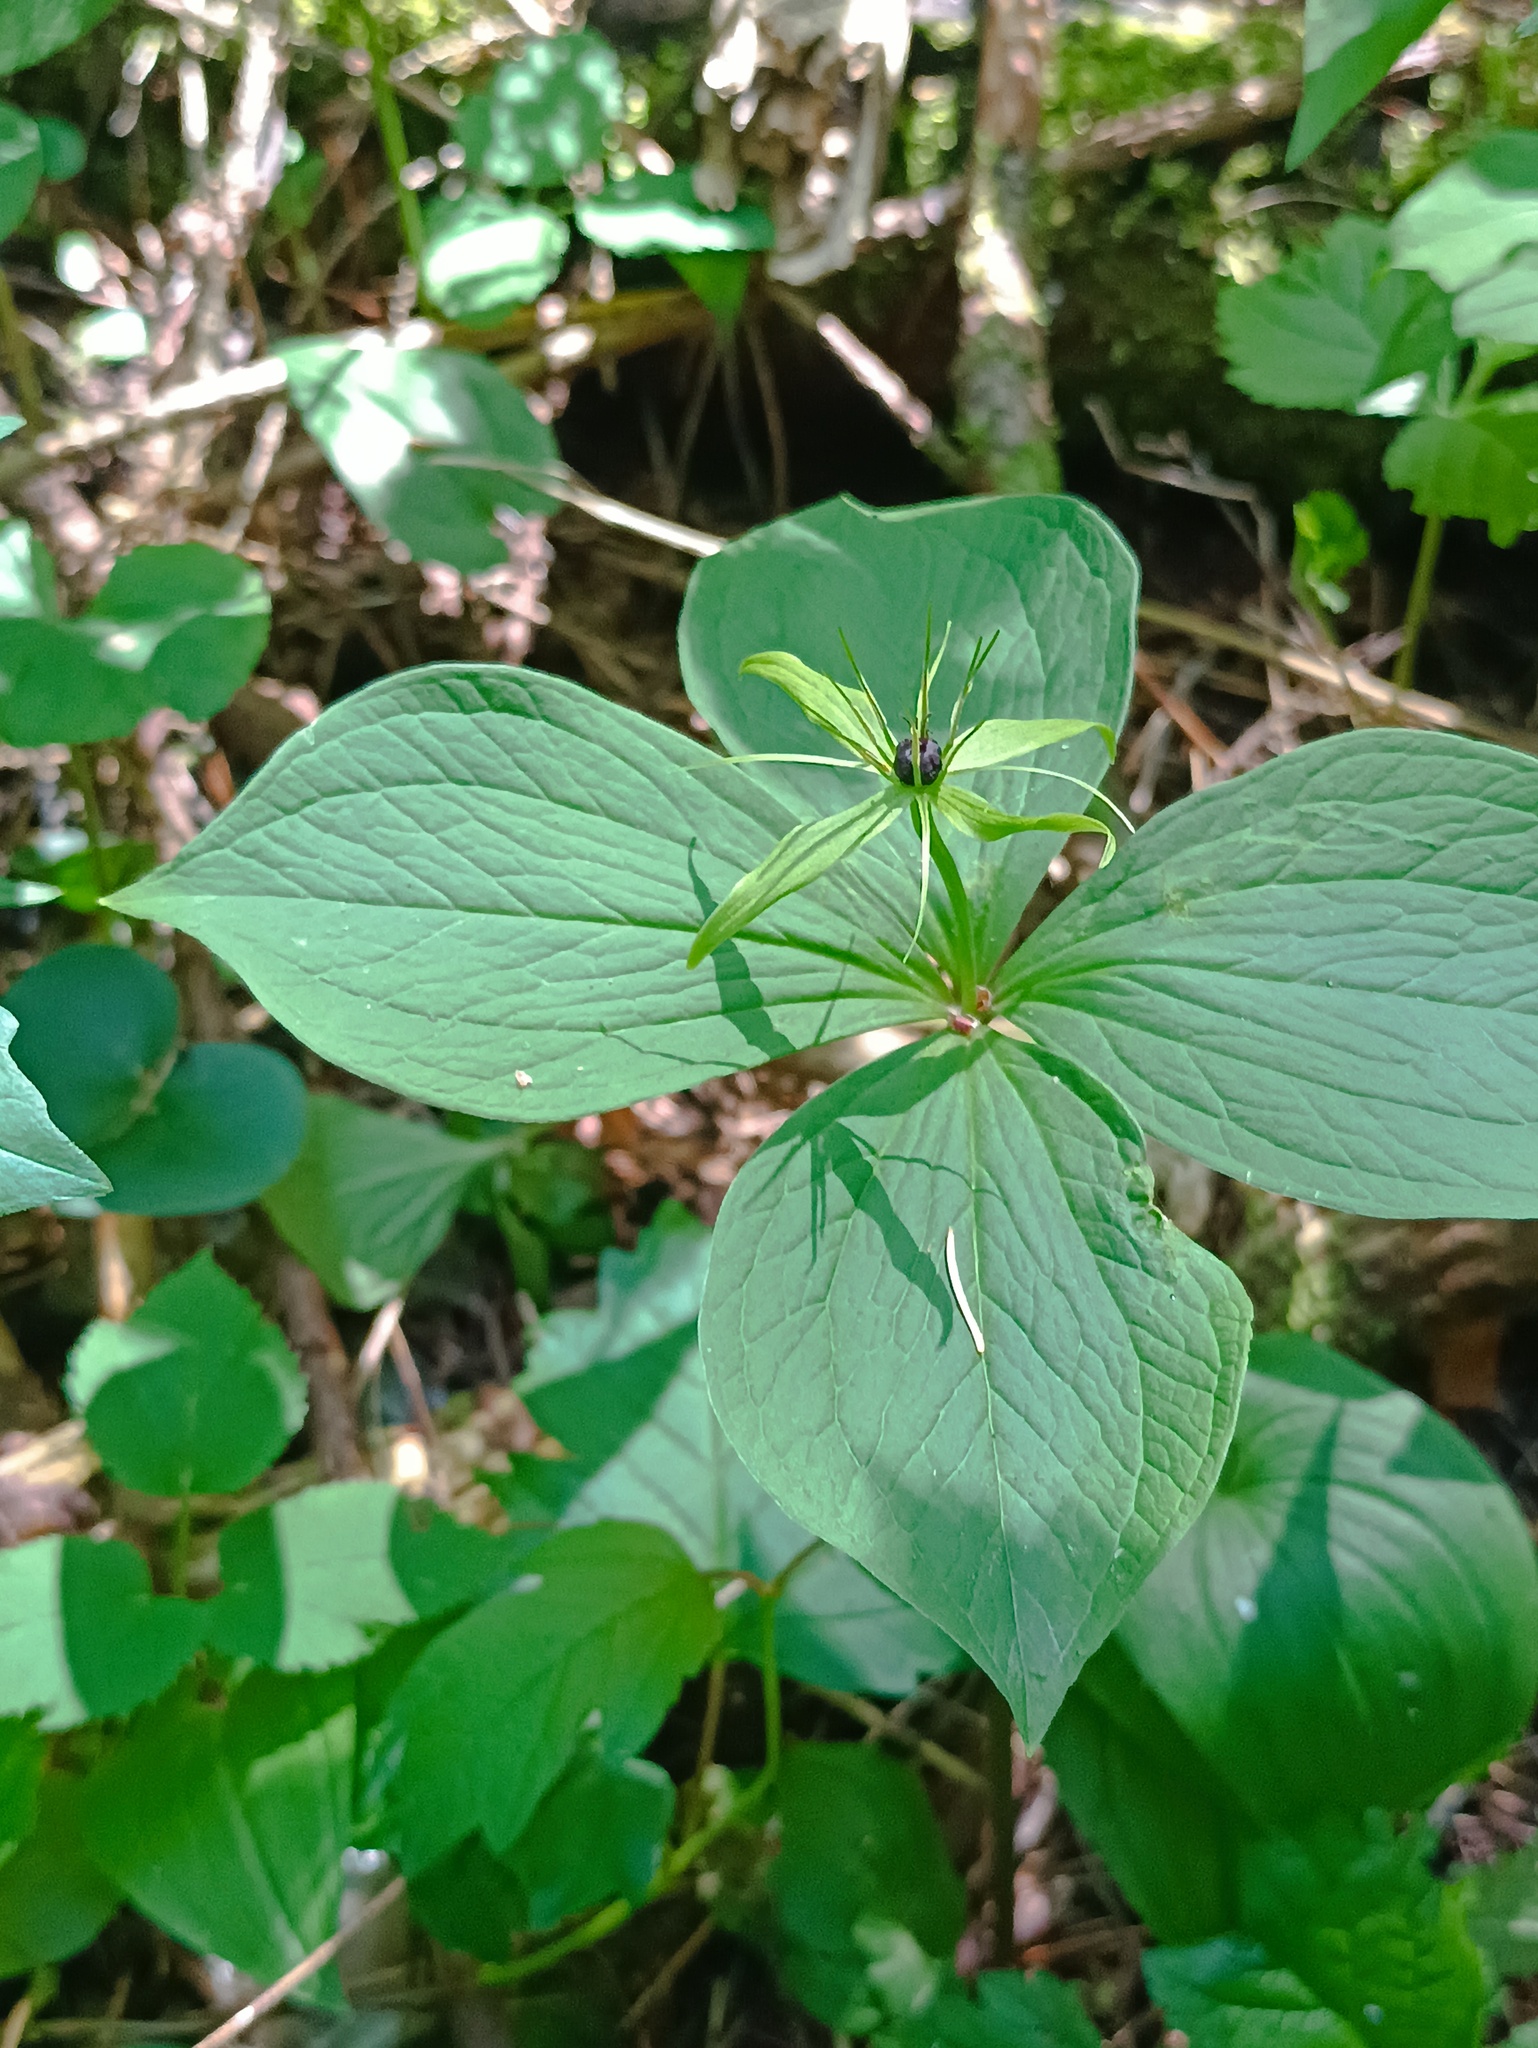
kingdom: Plantae
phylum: Tracheophyta
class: Liliopsida
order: Liliales
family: Melanthiaceae
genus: Paris
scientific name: Paris quadrifolia
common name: Herb-paris
